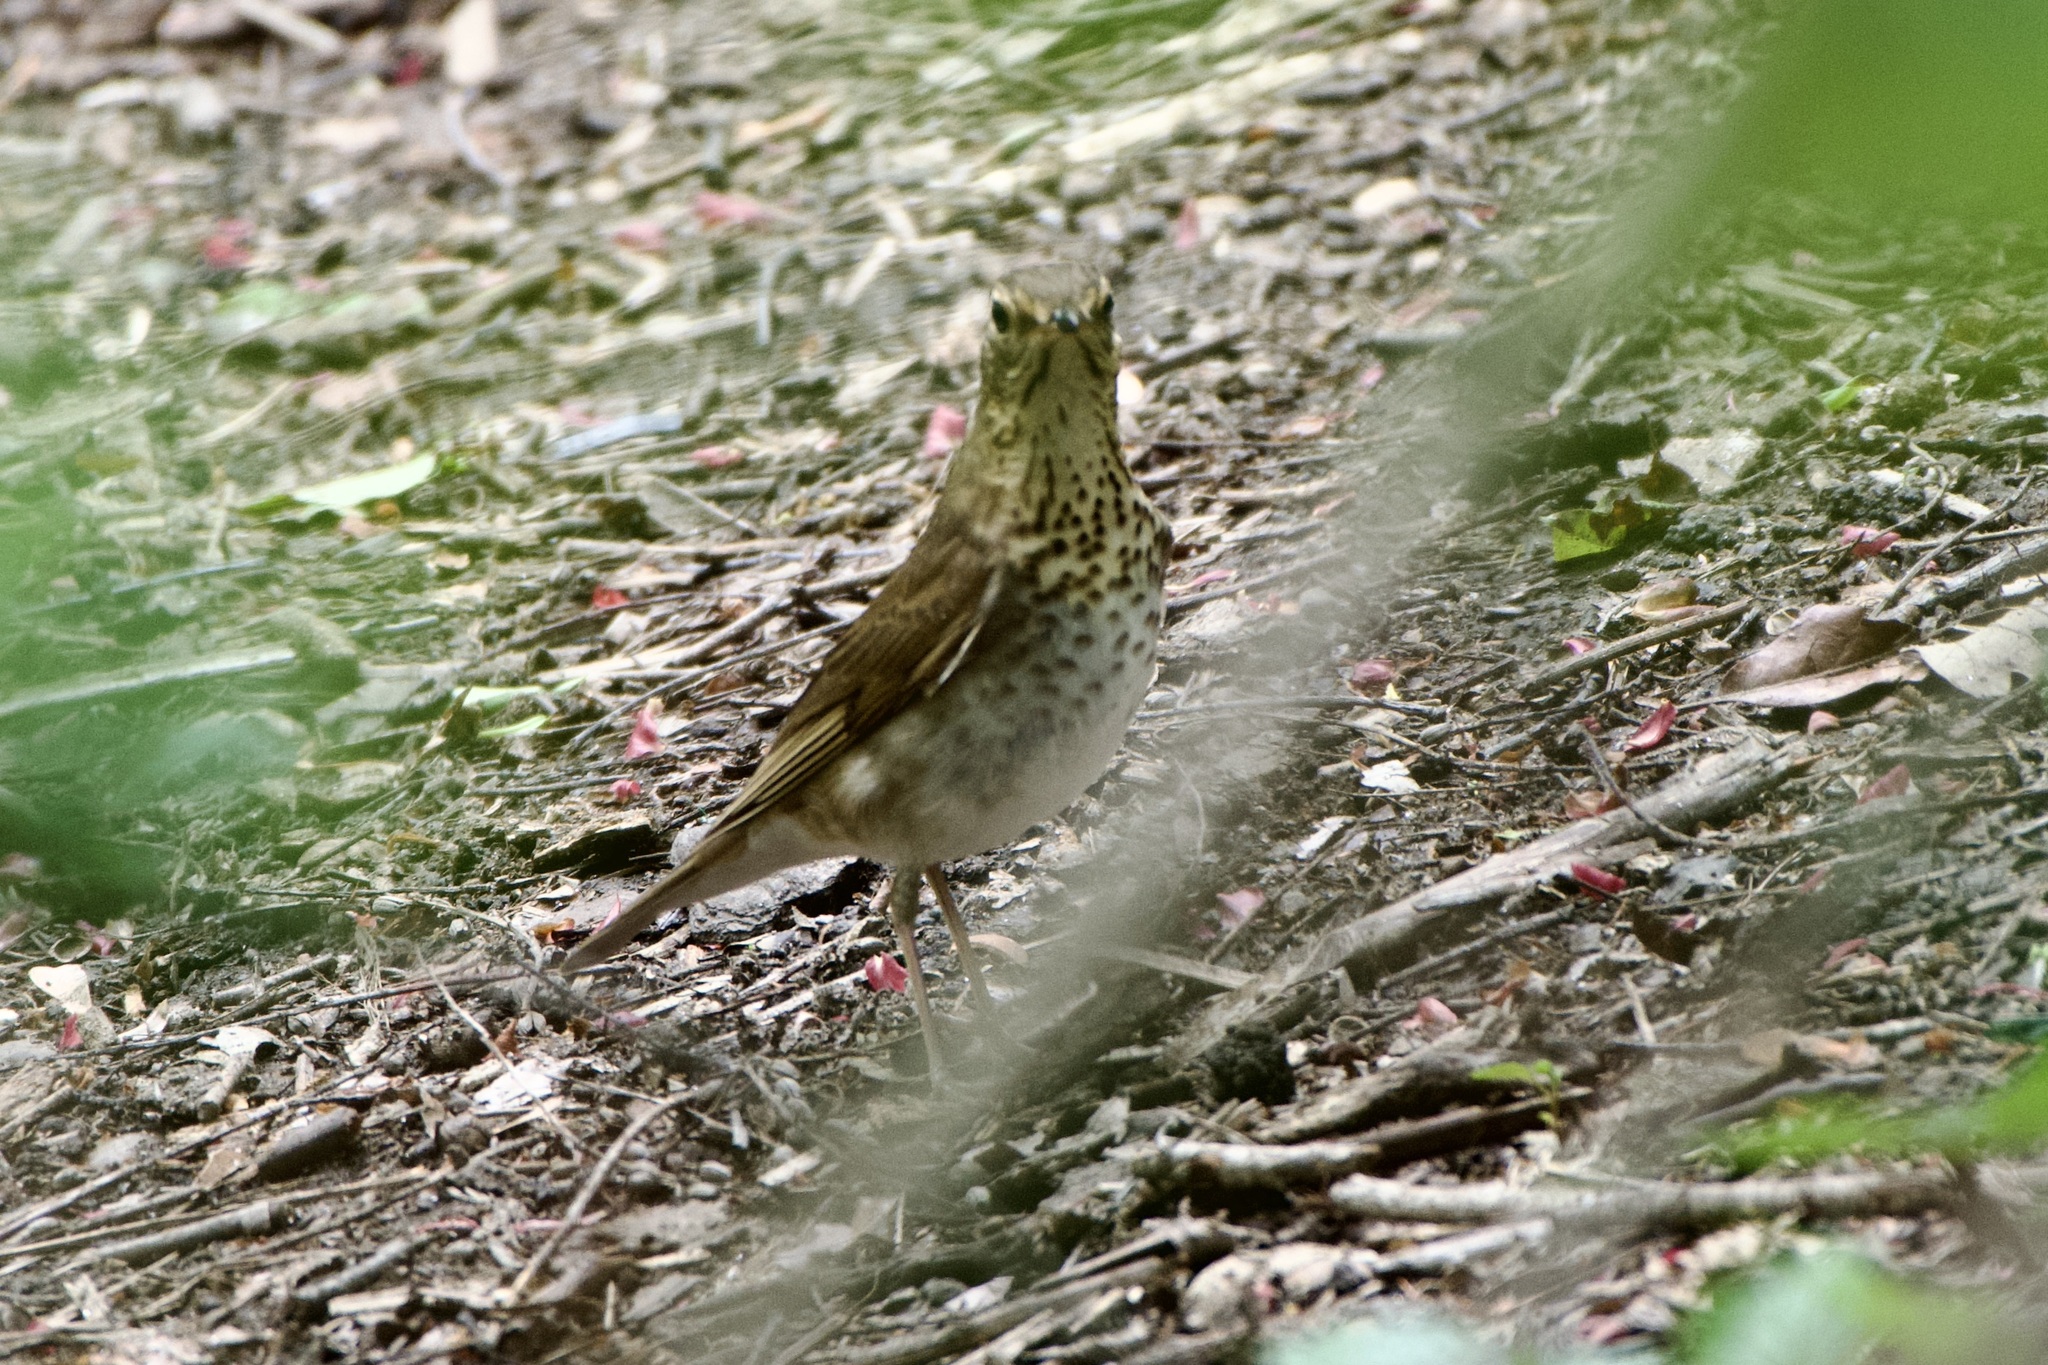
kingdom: Animalia
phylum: Chordata
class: Aves
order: Passeriformes
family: Turdidae
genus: Catharus
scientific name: Catharus ustulatus
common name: Swainson's thrush
